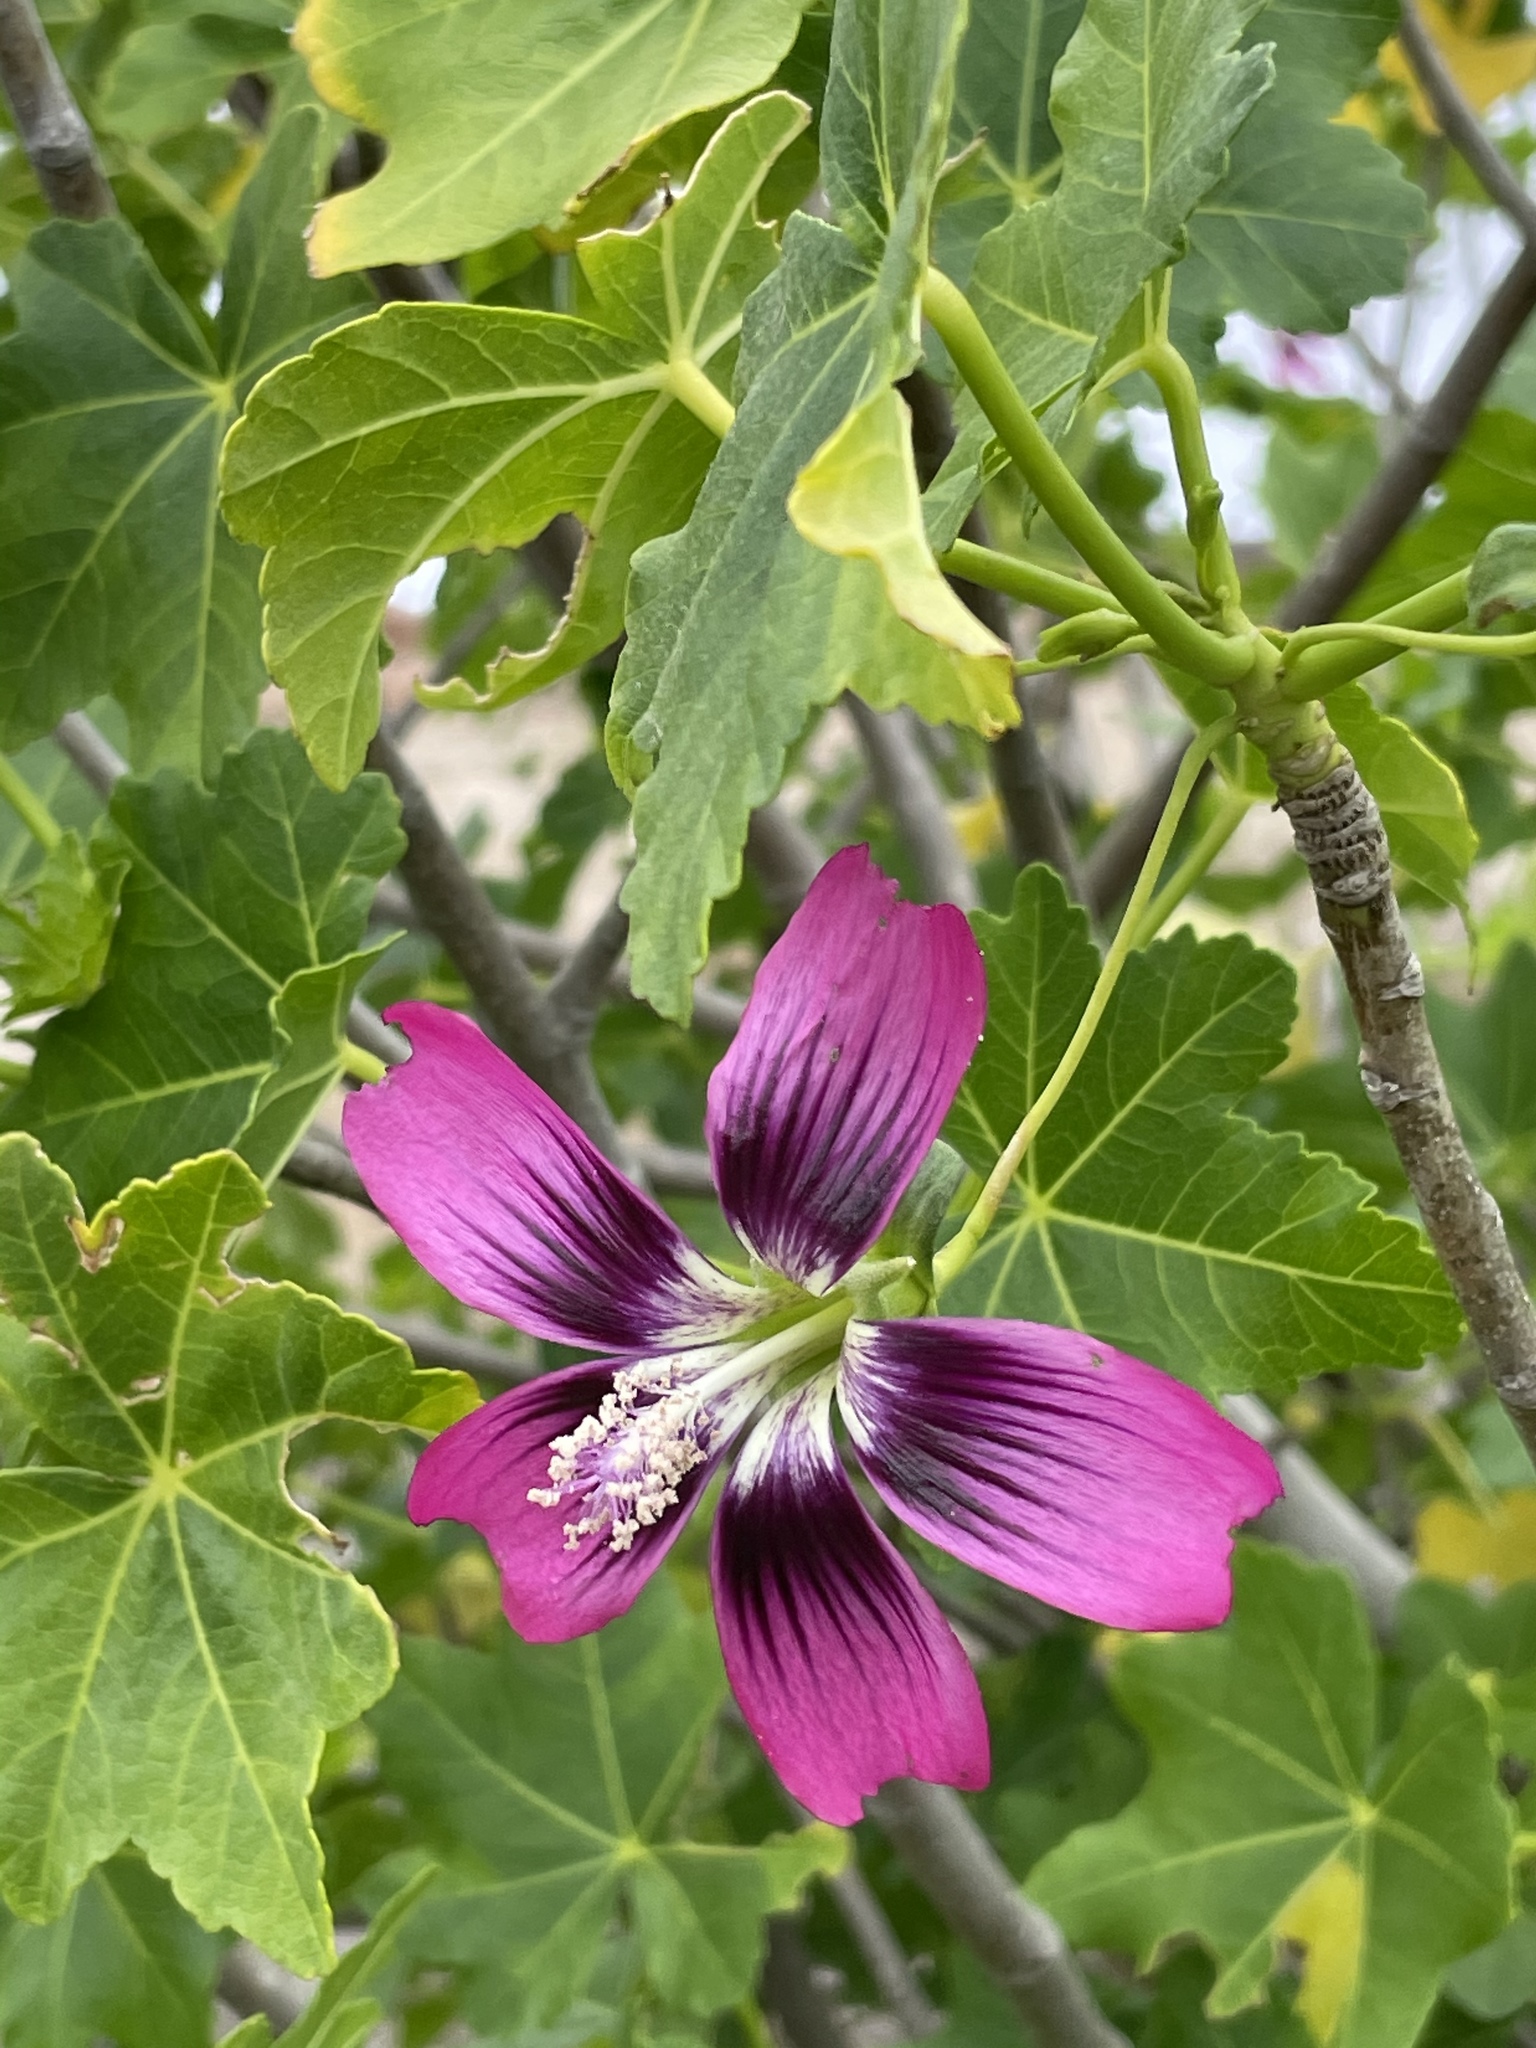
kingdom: Plantae
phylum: Tracheophyta
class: Magnoliopsida
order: Malvales
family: Malvaceae
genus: Malva
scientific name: Malva assurgentiflora
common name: Island mallow
